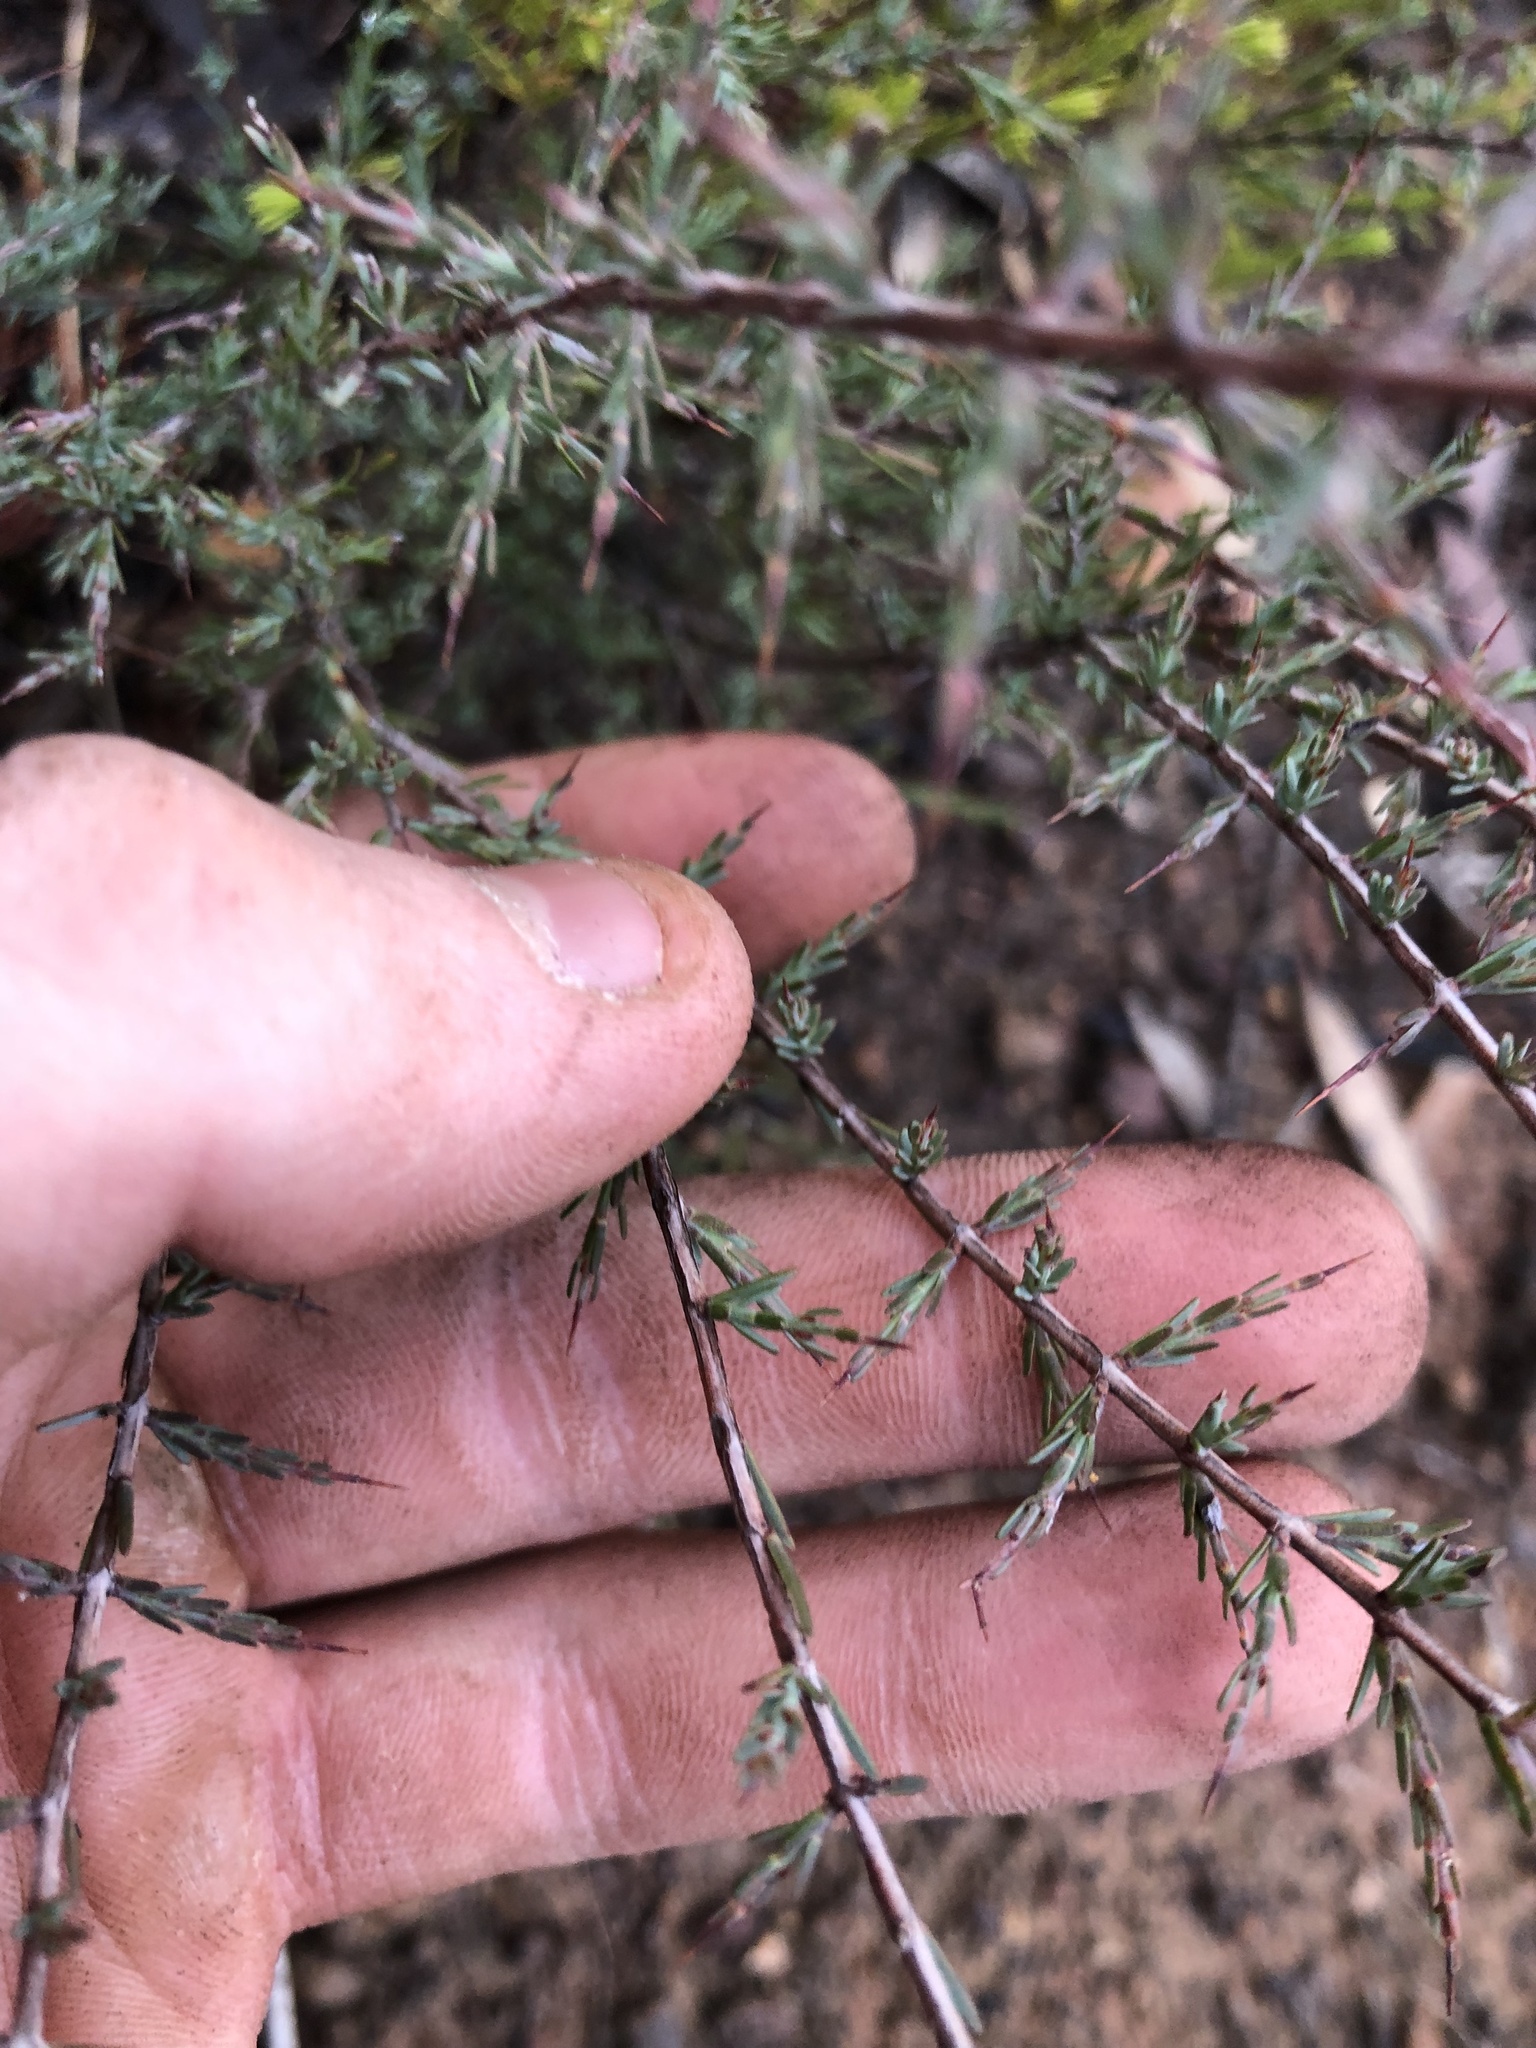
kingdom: Plantae
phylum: Tracheophyta
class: Magnoliopsida
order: Fabales
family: Fabaceae
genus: Eutaxia
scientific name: Eutaxia microphylla
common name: Mallee bush-pea
